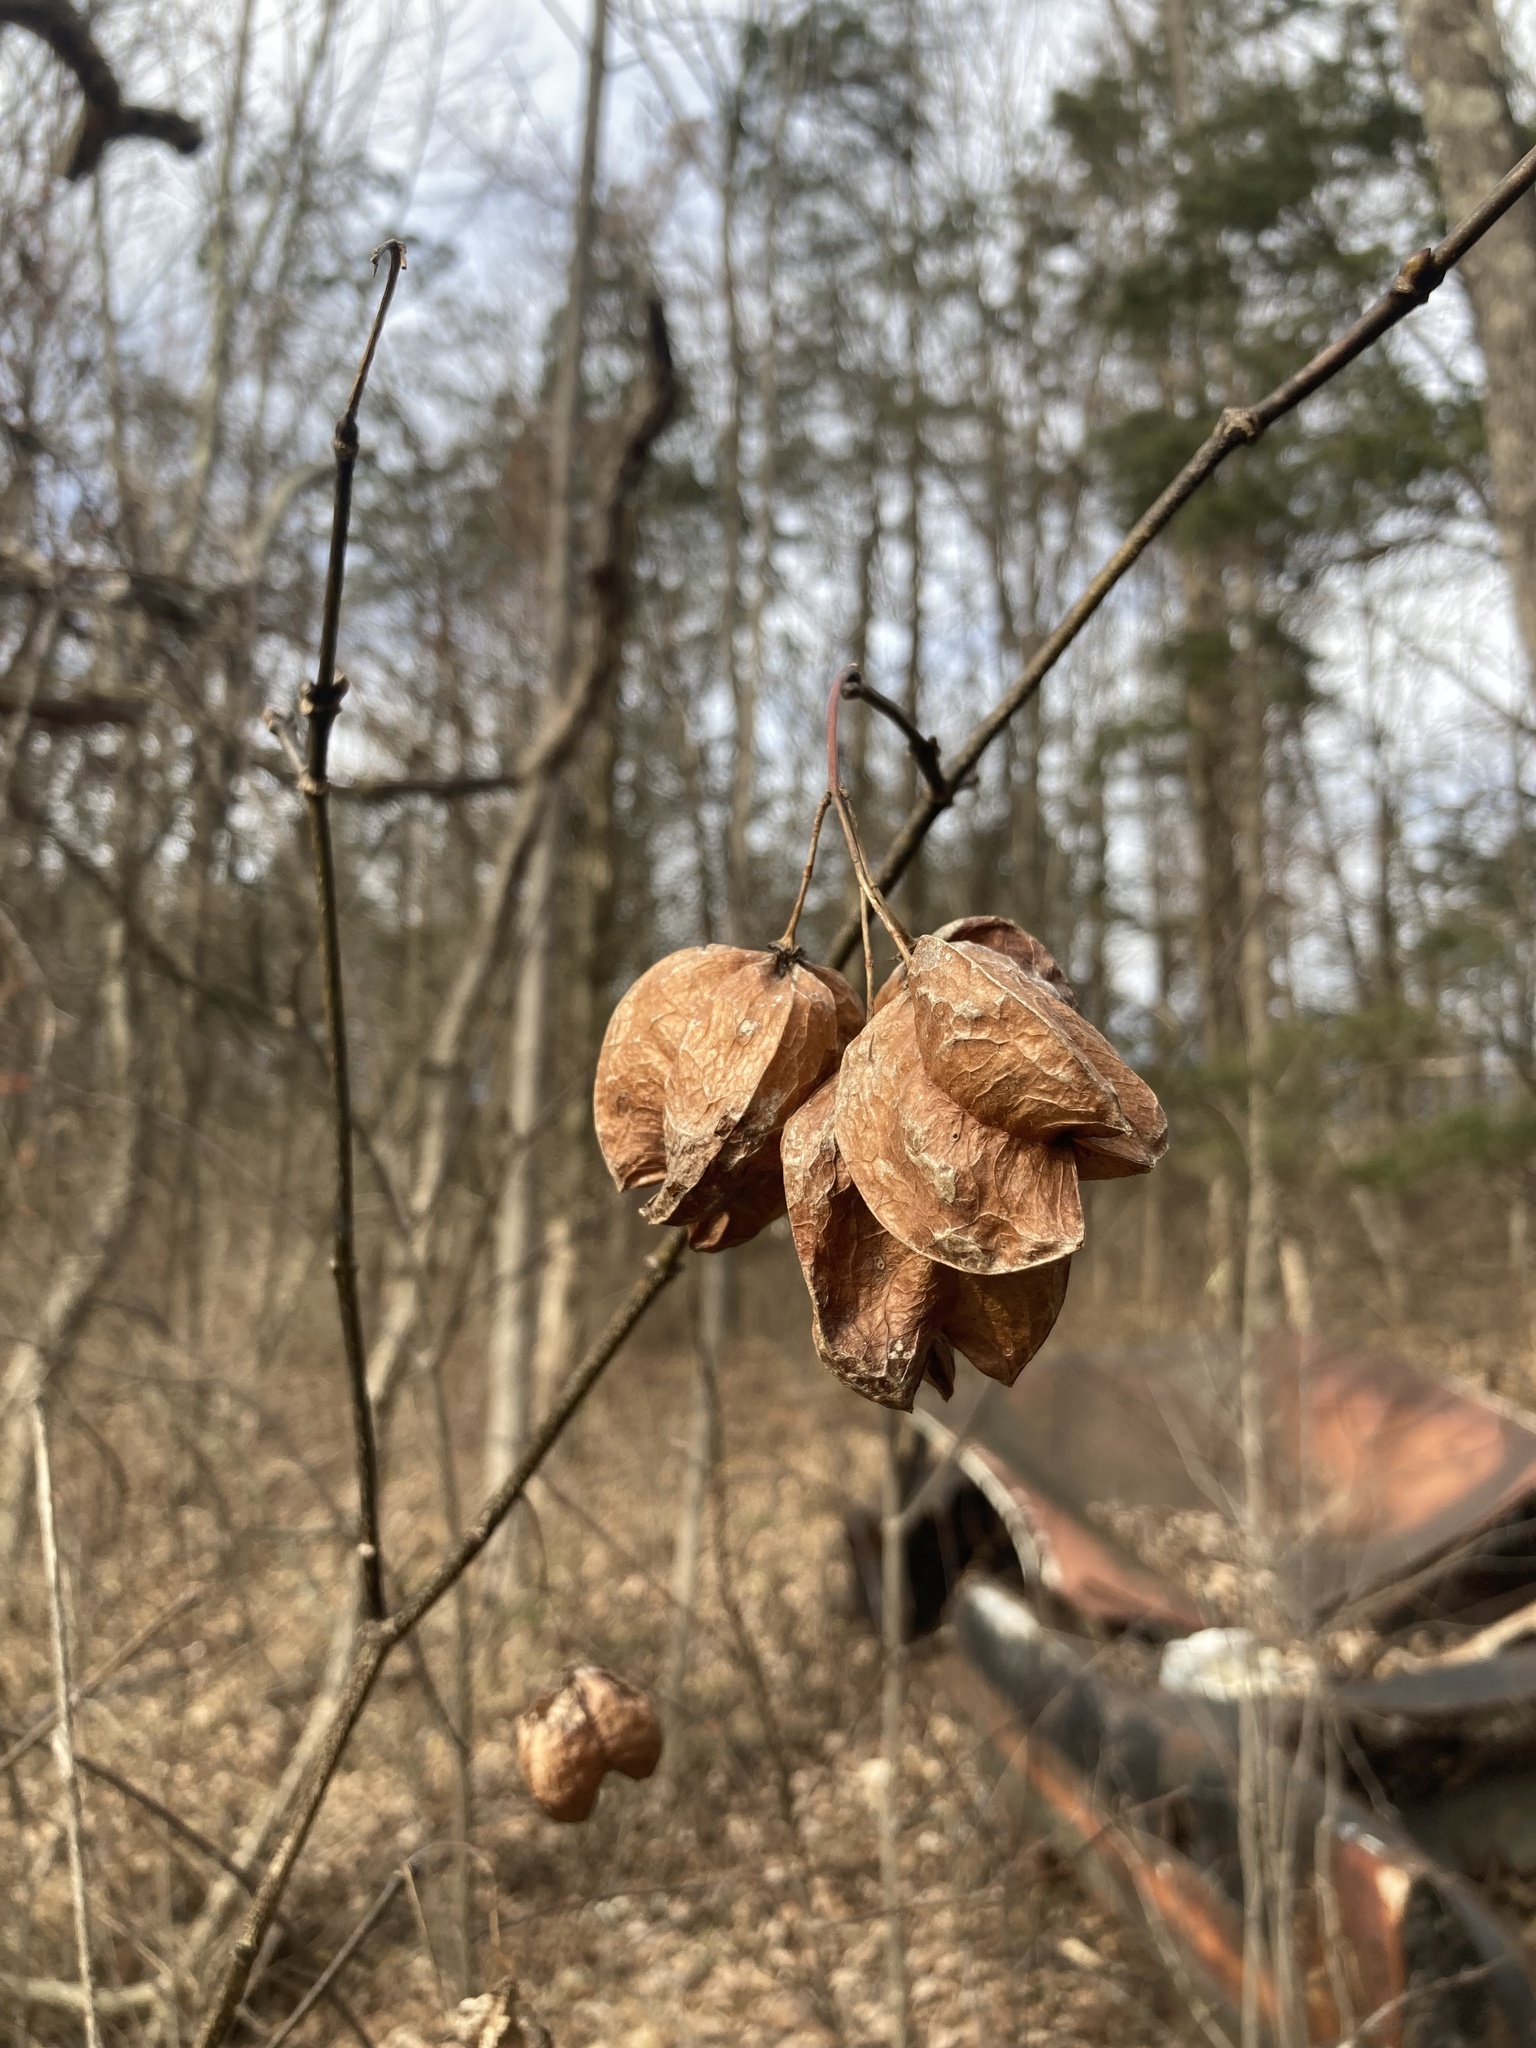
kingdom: Plantae
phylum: Tracheophyta
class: Magnoliopsida
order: Crossosomatales
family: Staphyleaceae
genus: Staphylea
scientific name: Staphylea trifolia
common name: American bladdernut
